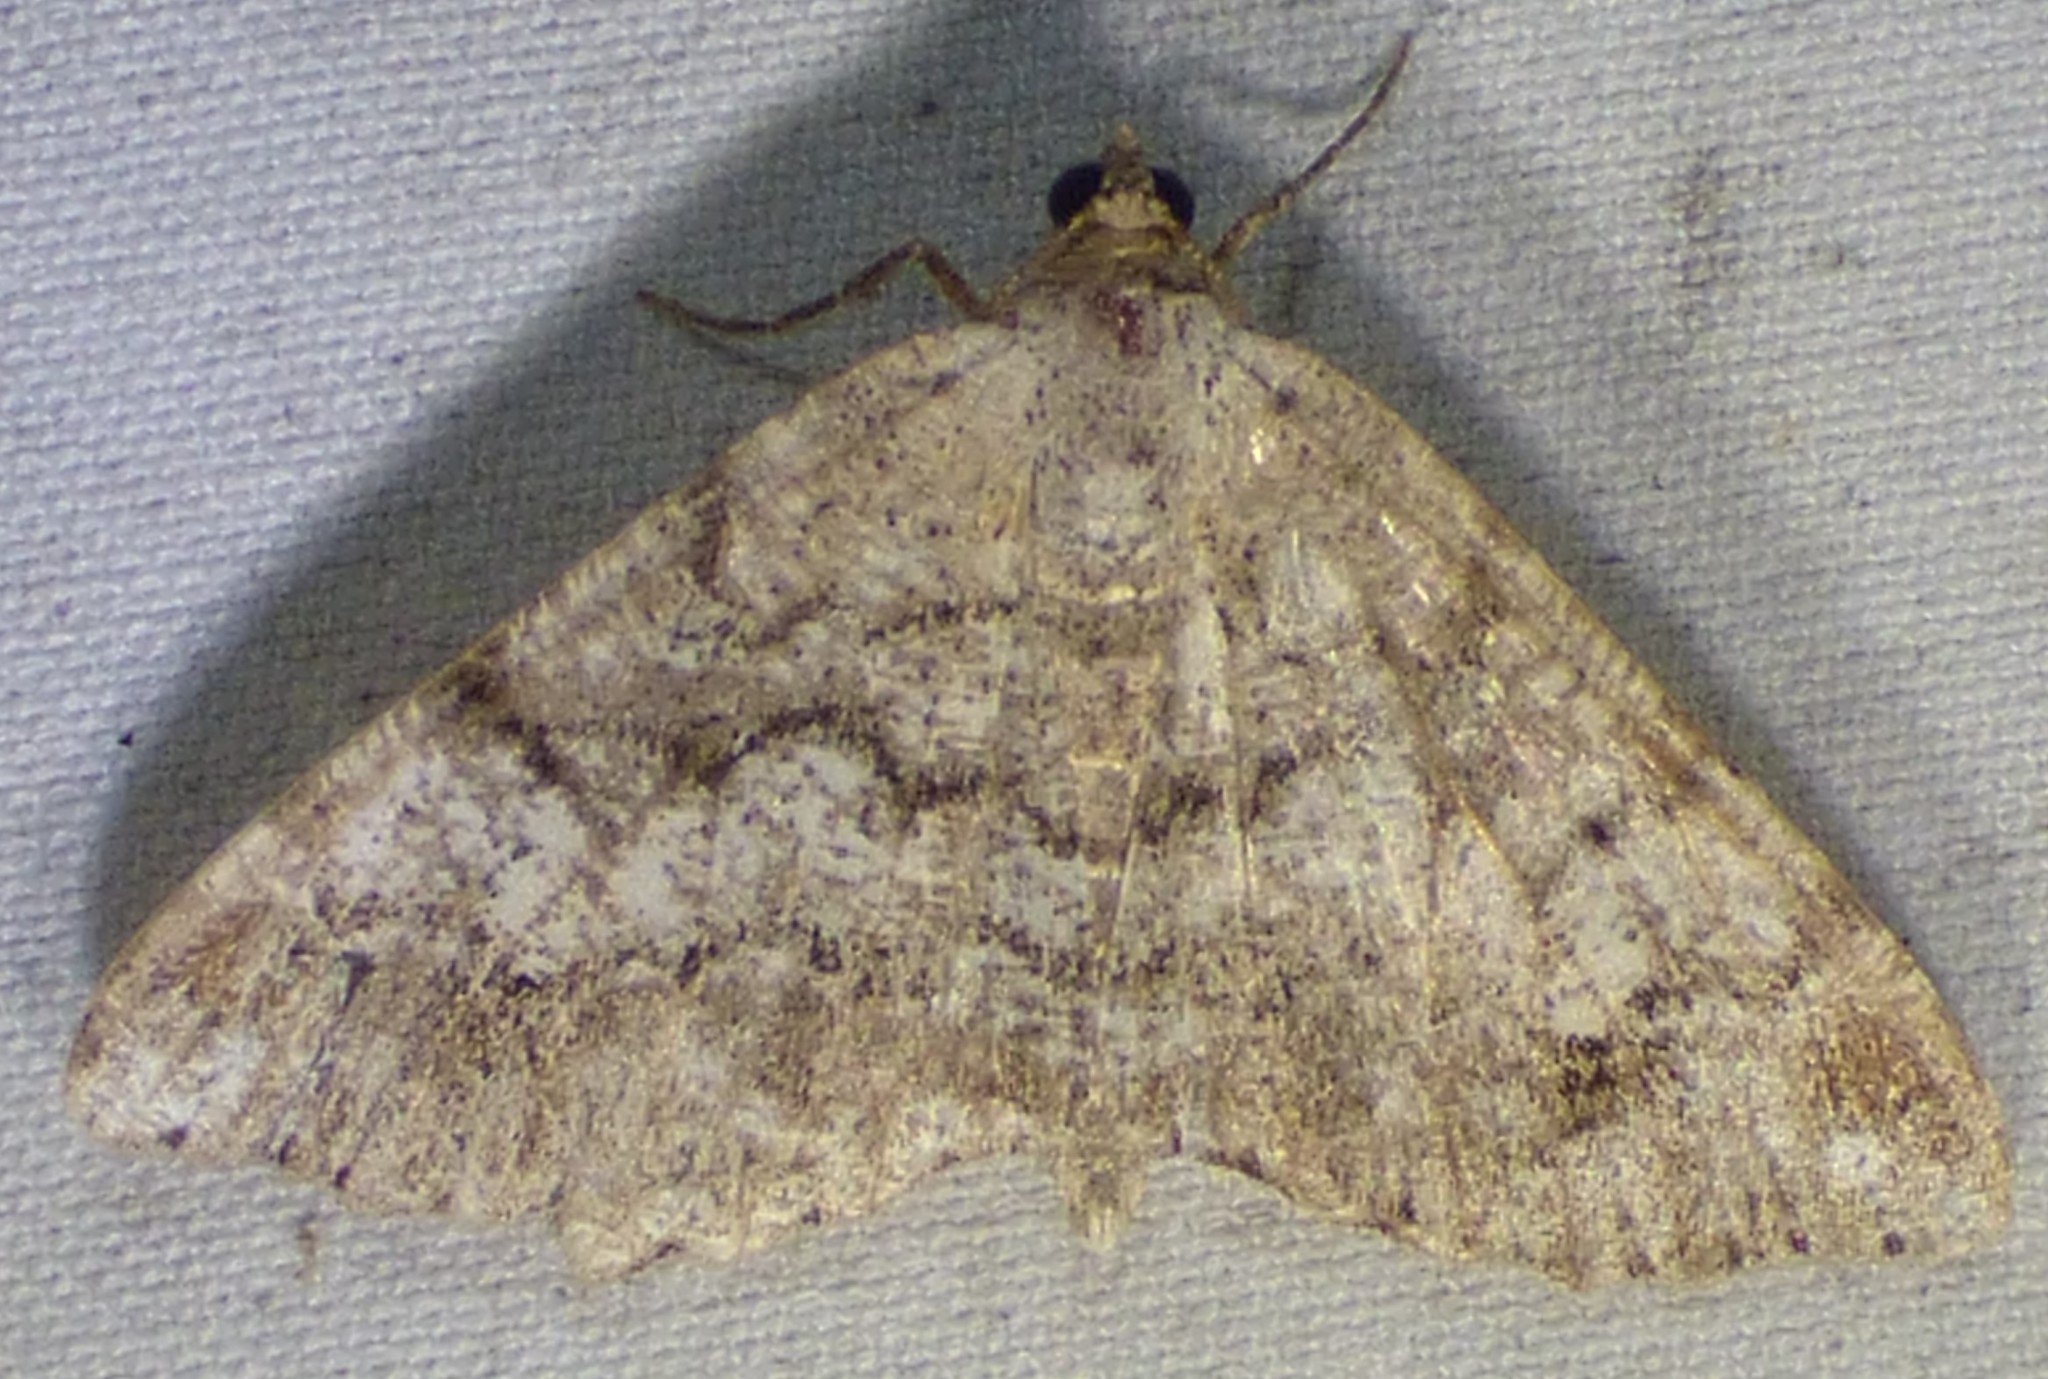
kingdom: Animalia
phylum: Arthropoda
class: Insecta
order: Lepidoptera
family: Geometridae
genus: Macaria
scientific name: Macaria granitata
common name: Granite moth
